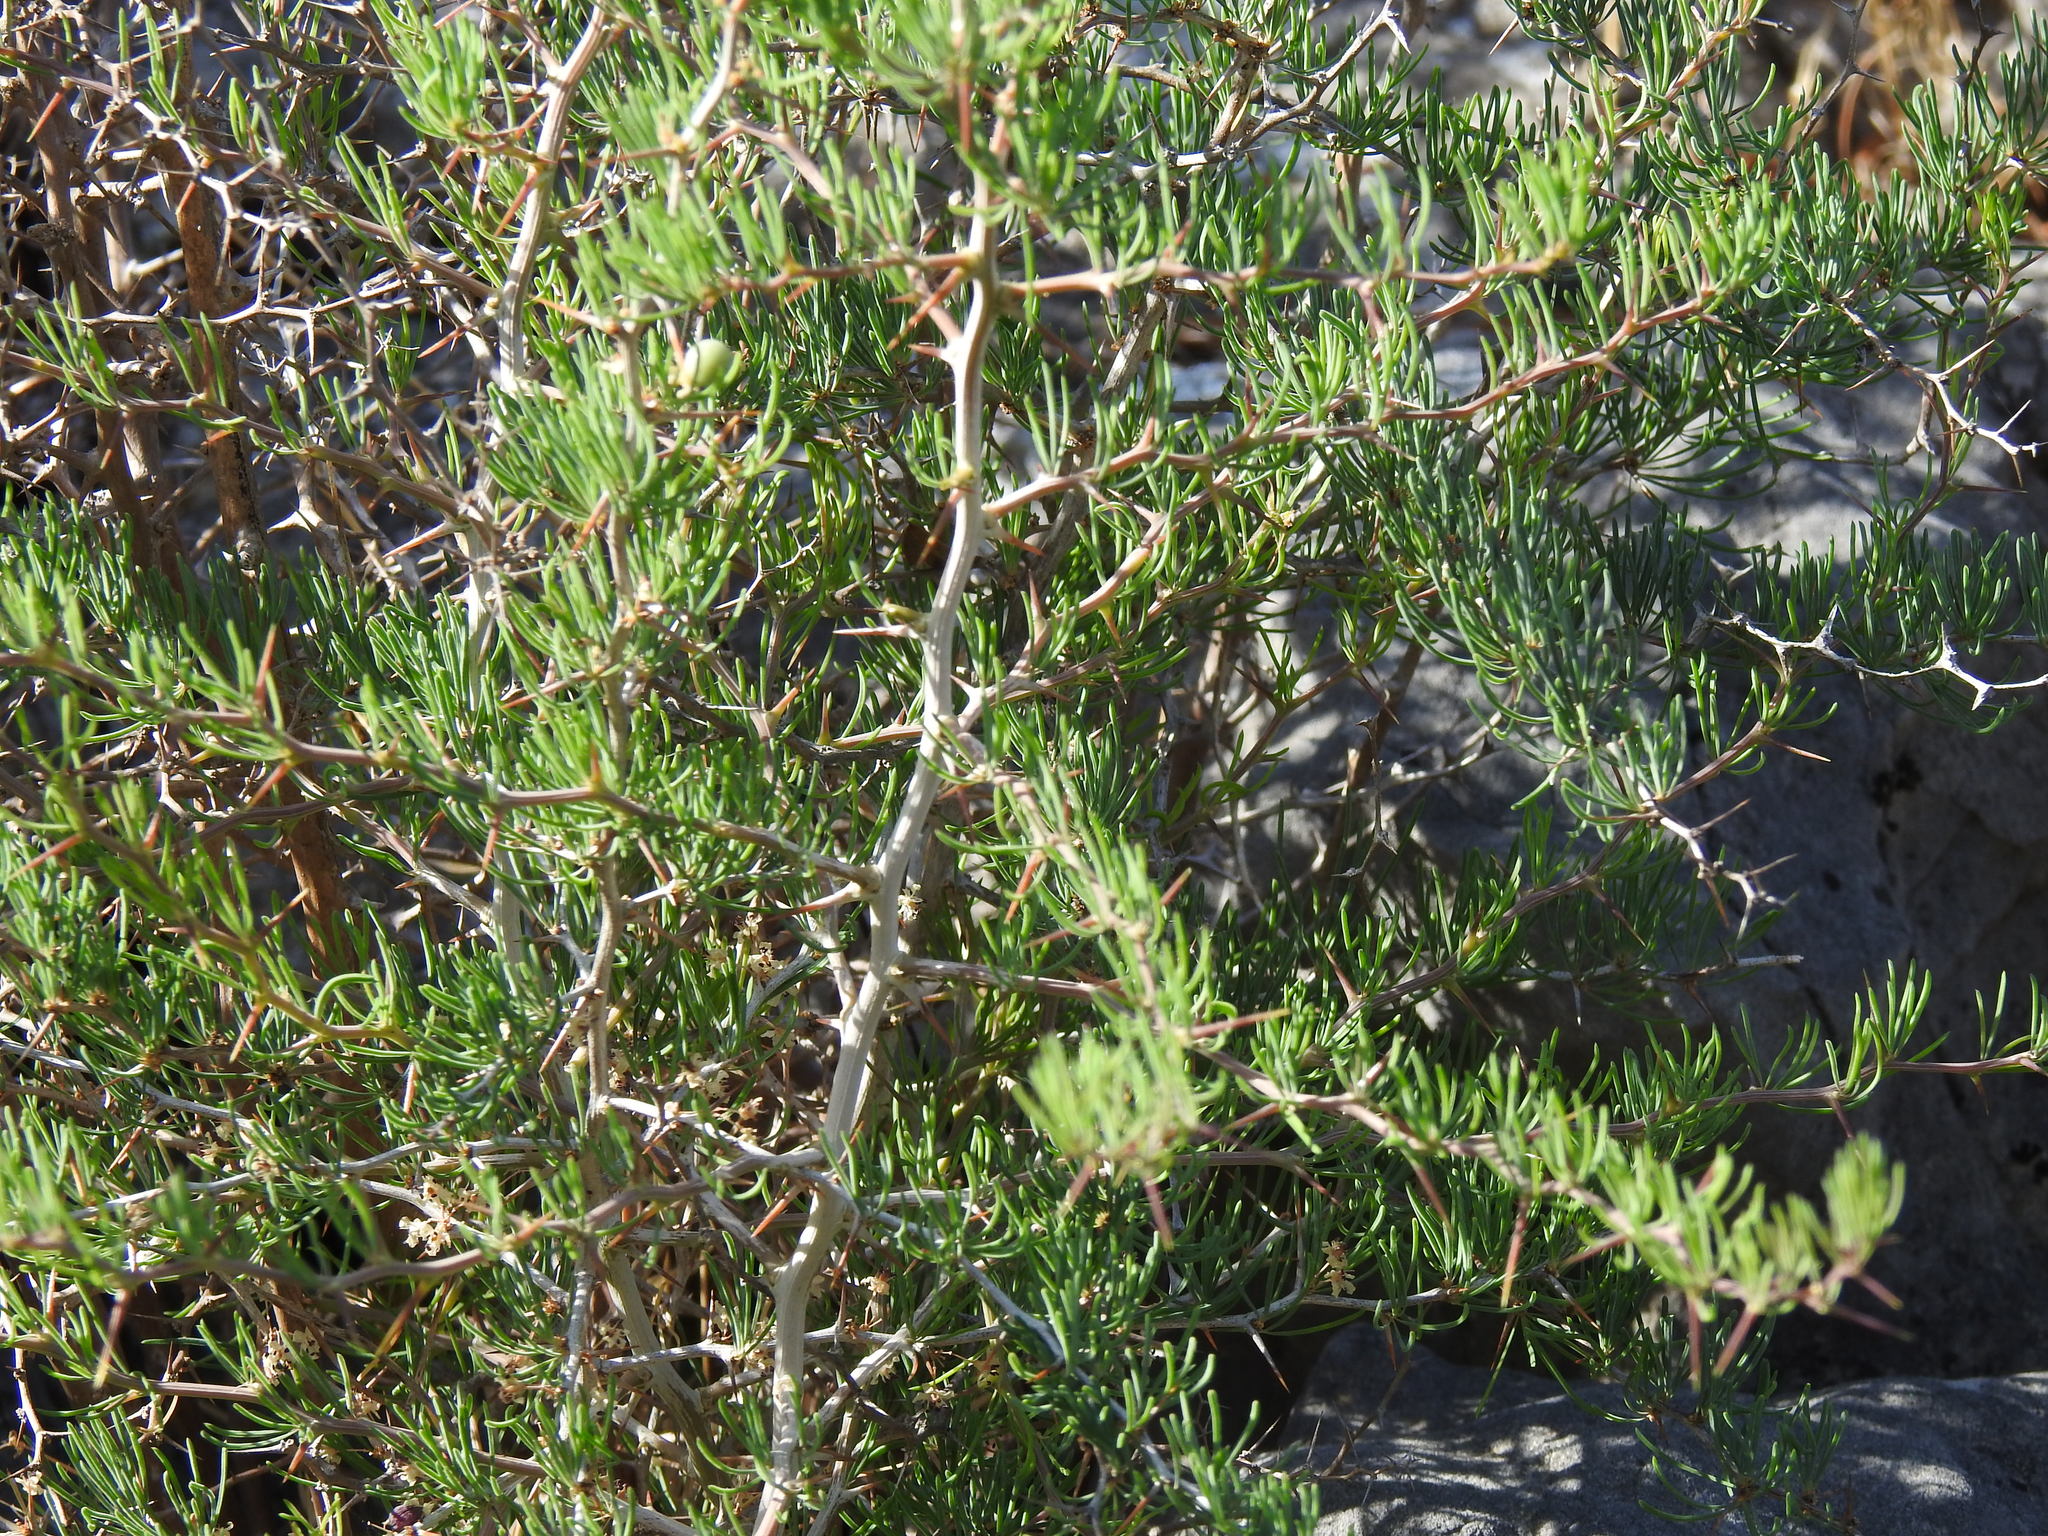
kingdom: Plantae
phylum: Tracheophyta
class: Liliopsida
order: Asparagales
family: Asparagaceae
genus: Asparagus
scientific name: Asparagus albus
